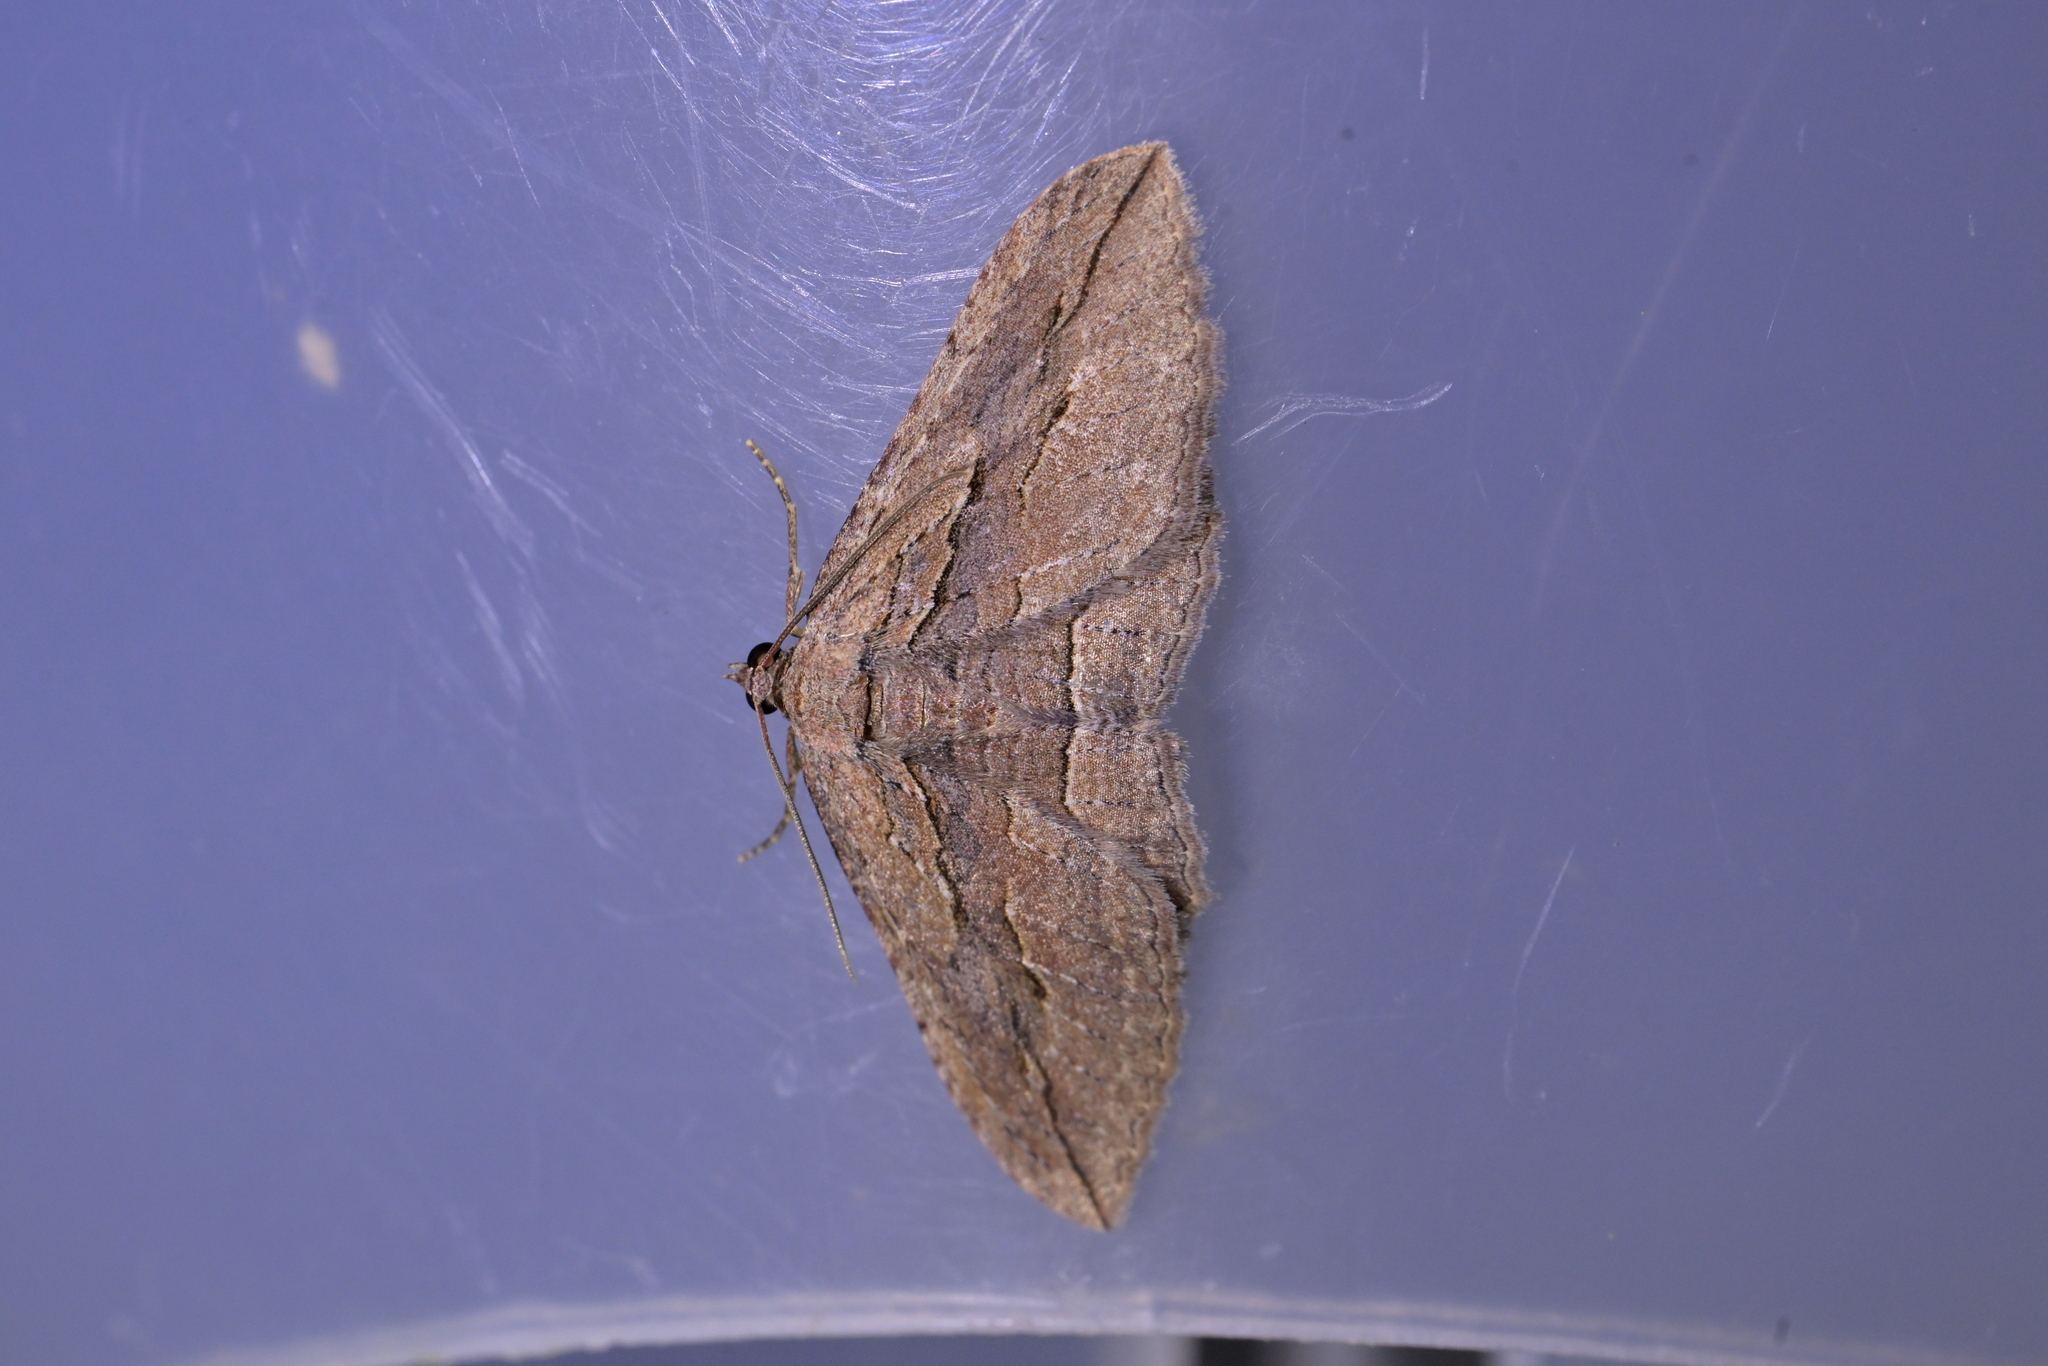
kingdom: Animalia
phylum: Arthropoda
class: Insecta
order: Lepidoptera
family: Geometridae
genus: Austrocidaria
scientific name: Austrocidaria gobiata
